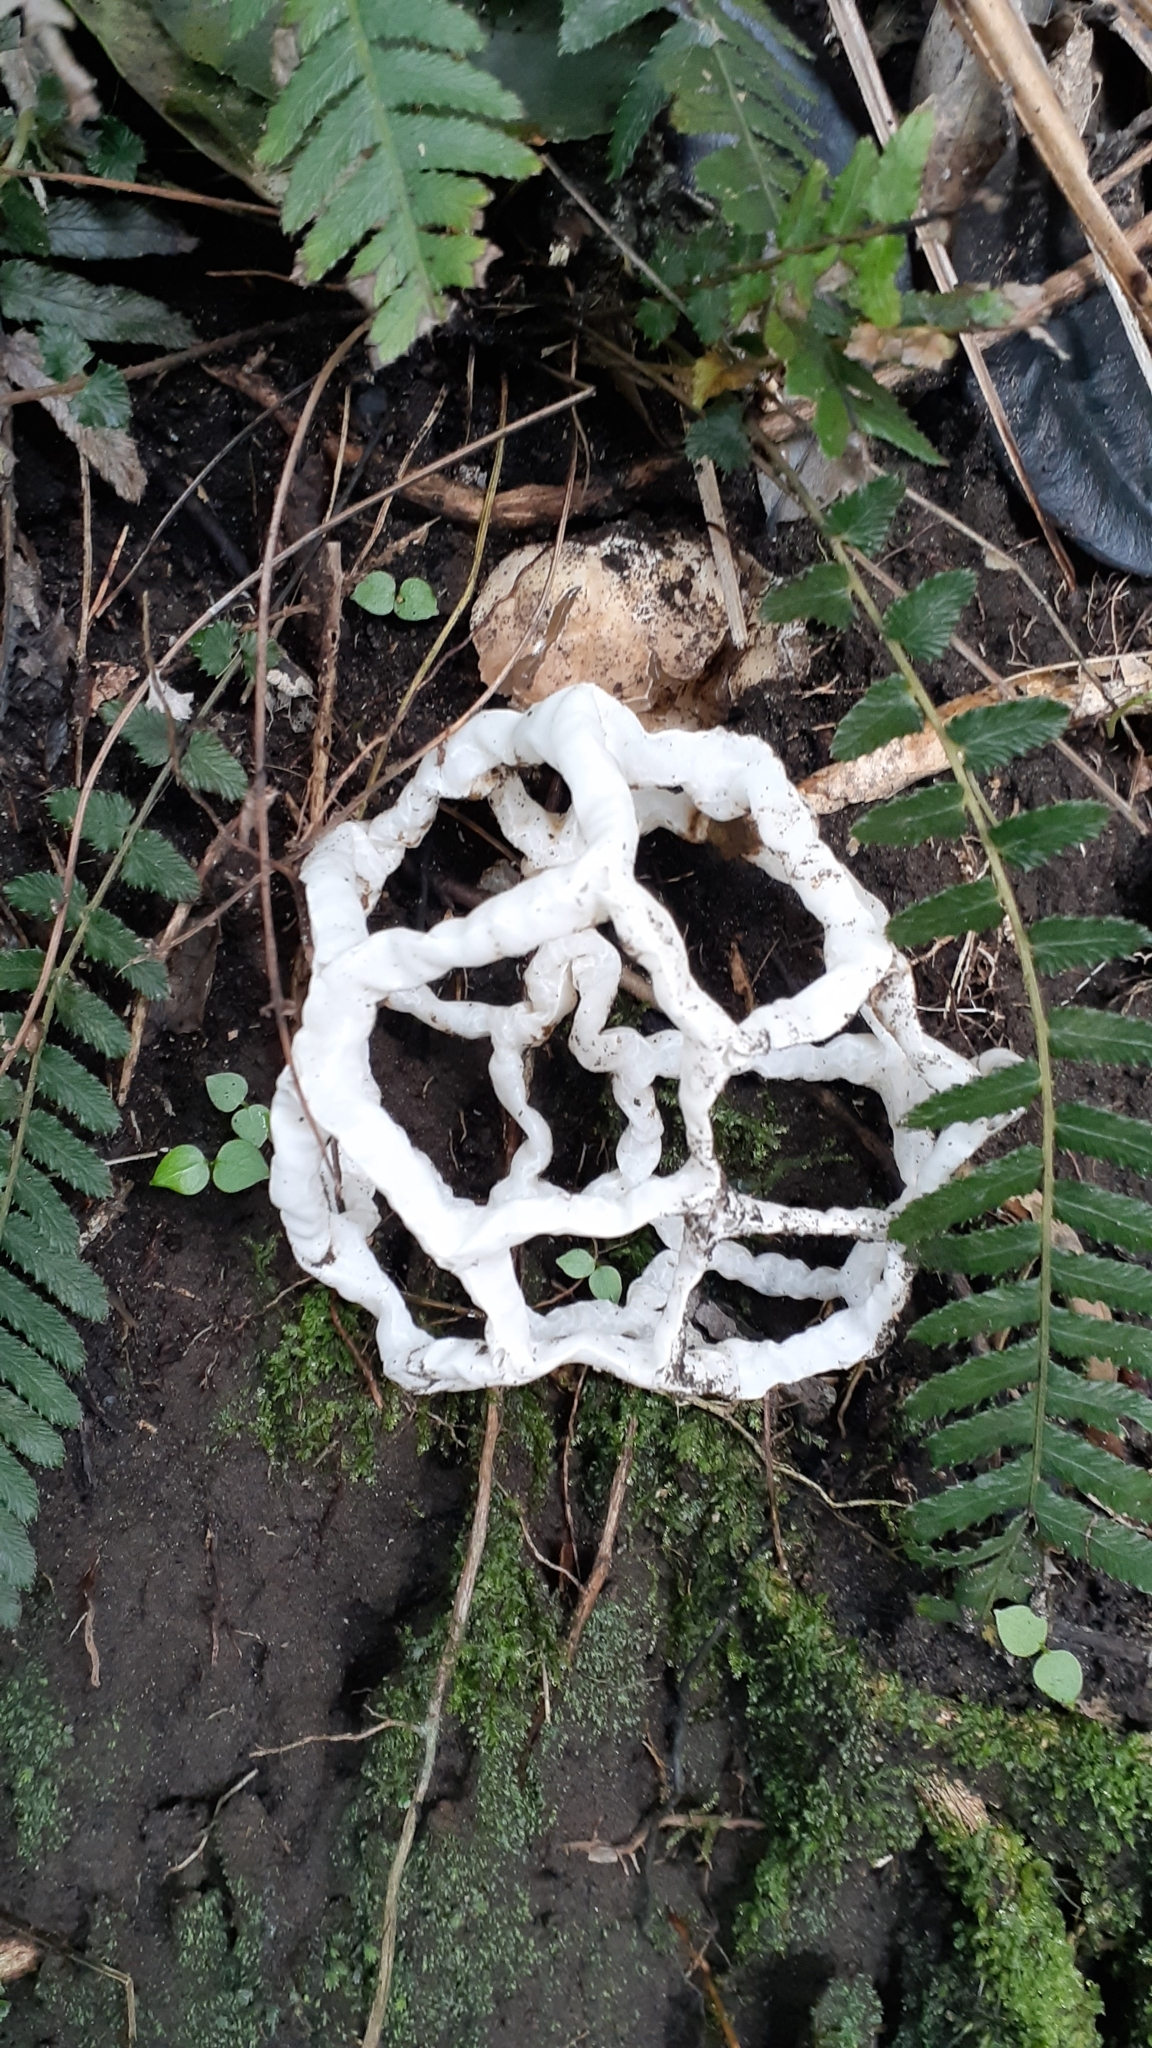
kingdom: Fungi
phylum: Basidiomycota
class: Agaricomycetes
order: Phallales
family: Phallaceae
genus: Ileodictyon
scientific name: Ileodictyon cibarium
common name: Basket fungus
